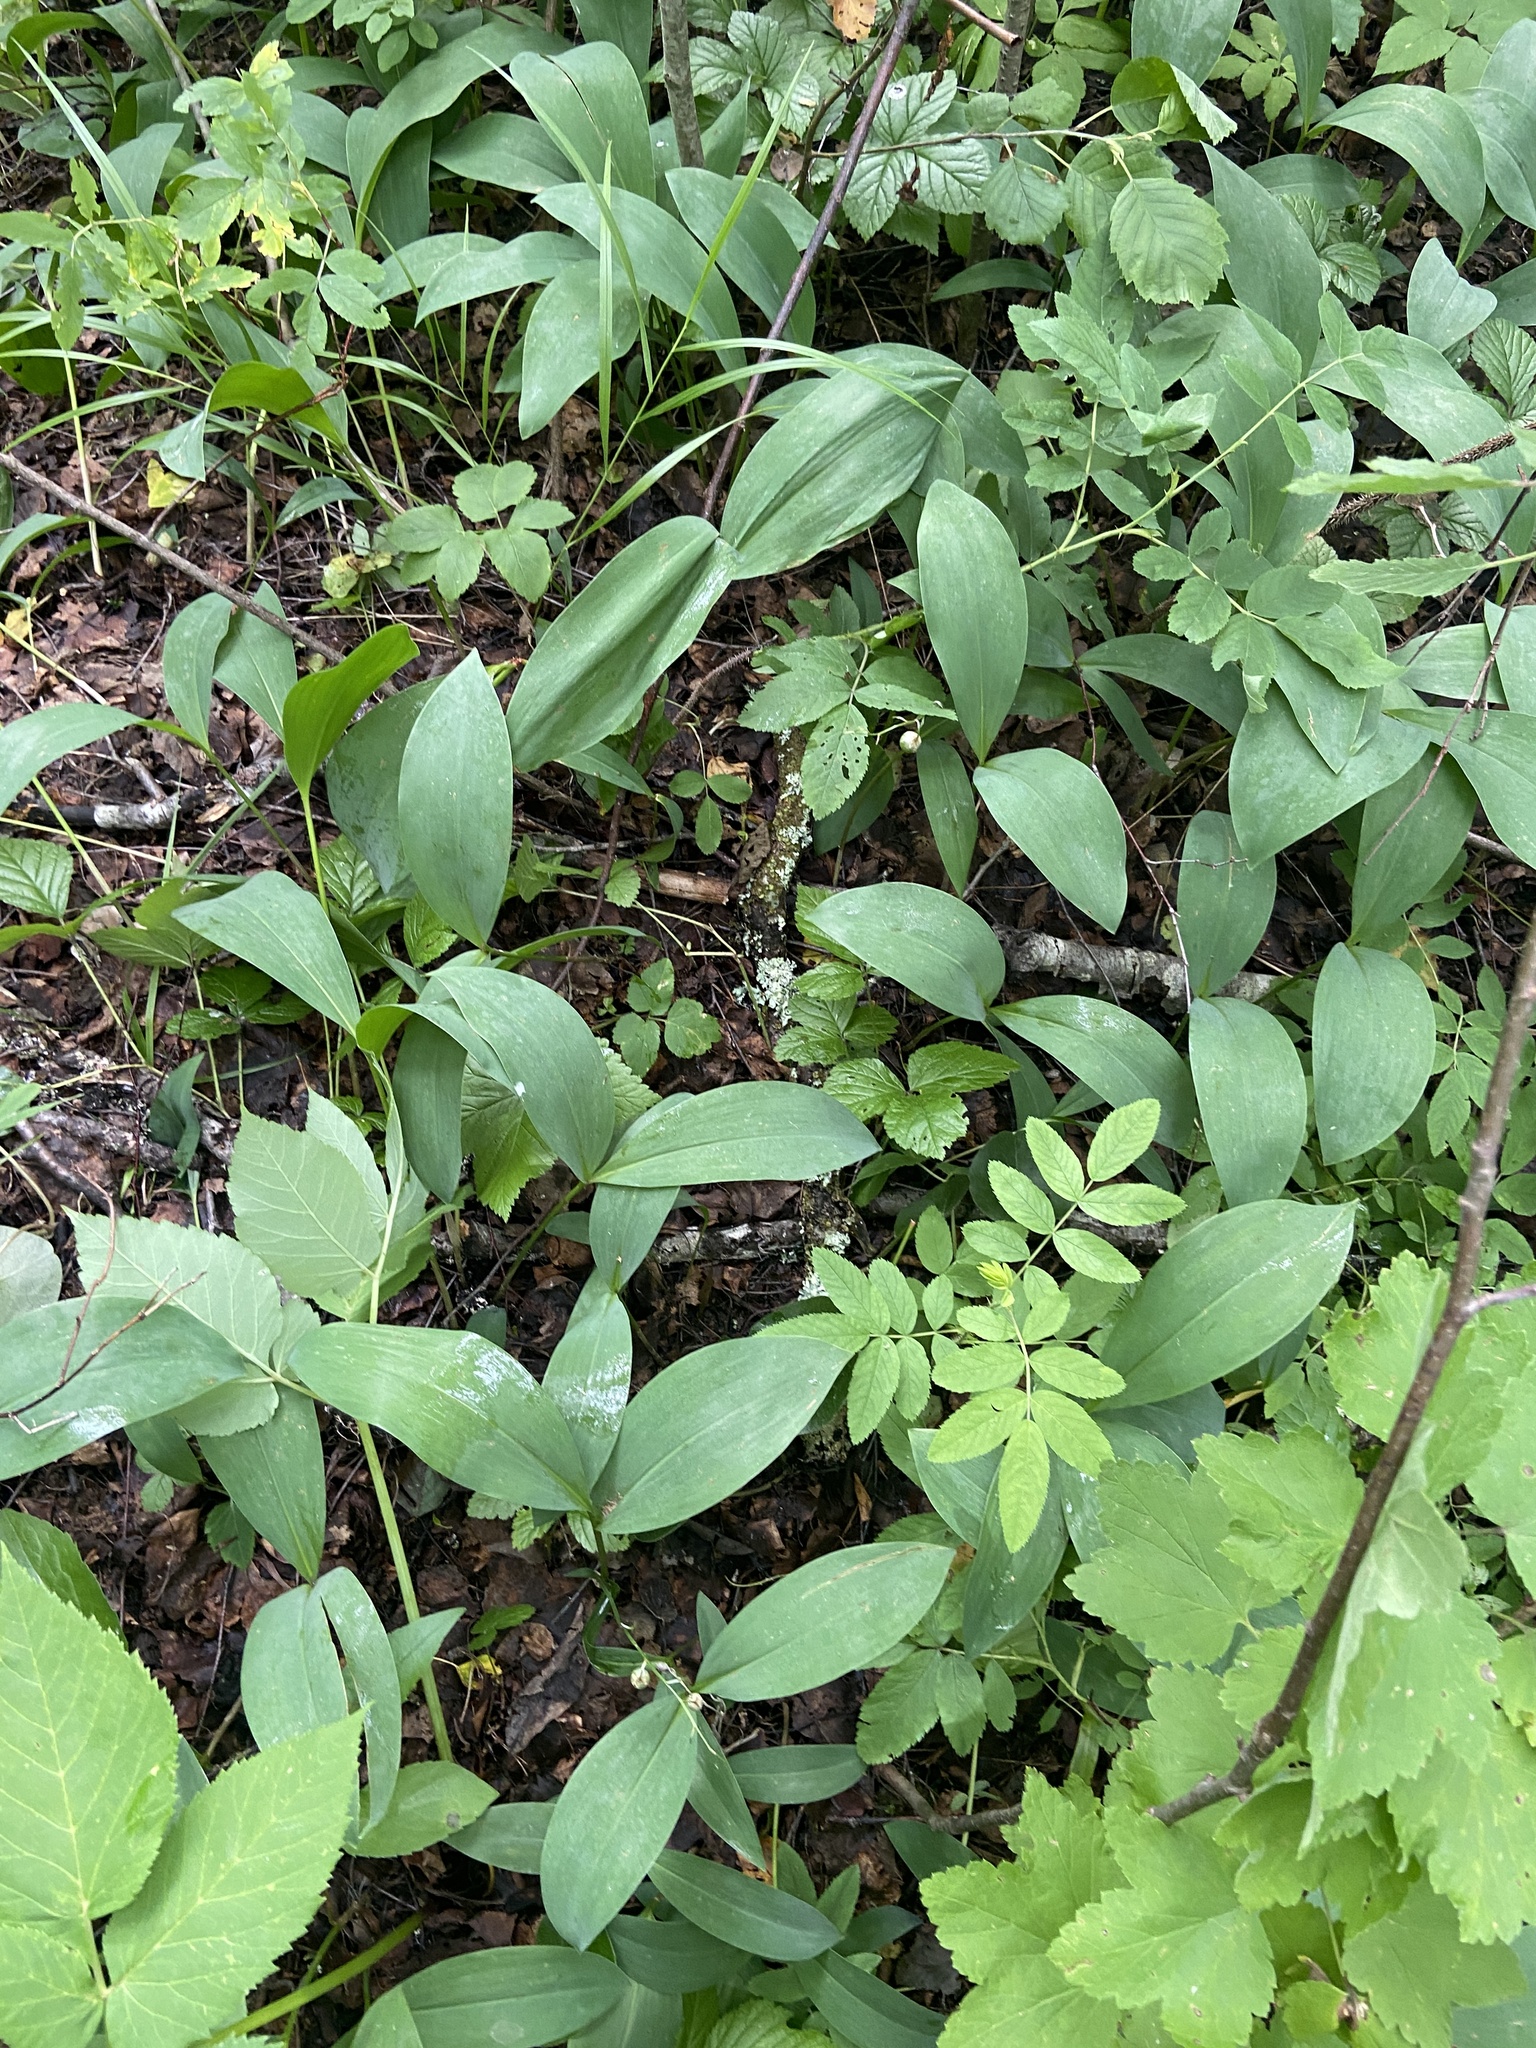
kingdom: Plantae
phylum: Tracheophyta
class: Liliopsida
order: Asparagales
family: Asparagaceae
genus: Convallaria
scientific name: Convallaria majalis
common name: Lily-of-the-valley
